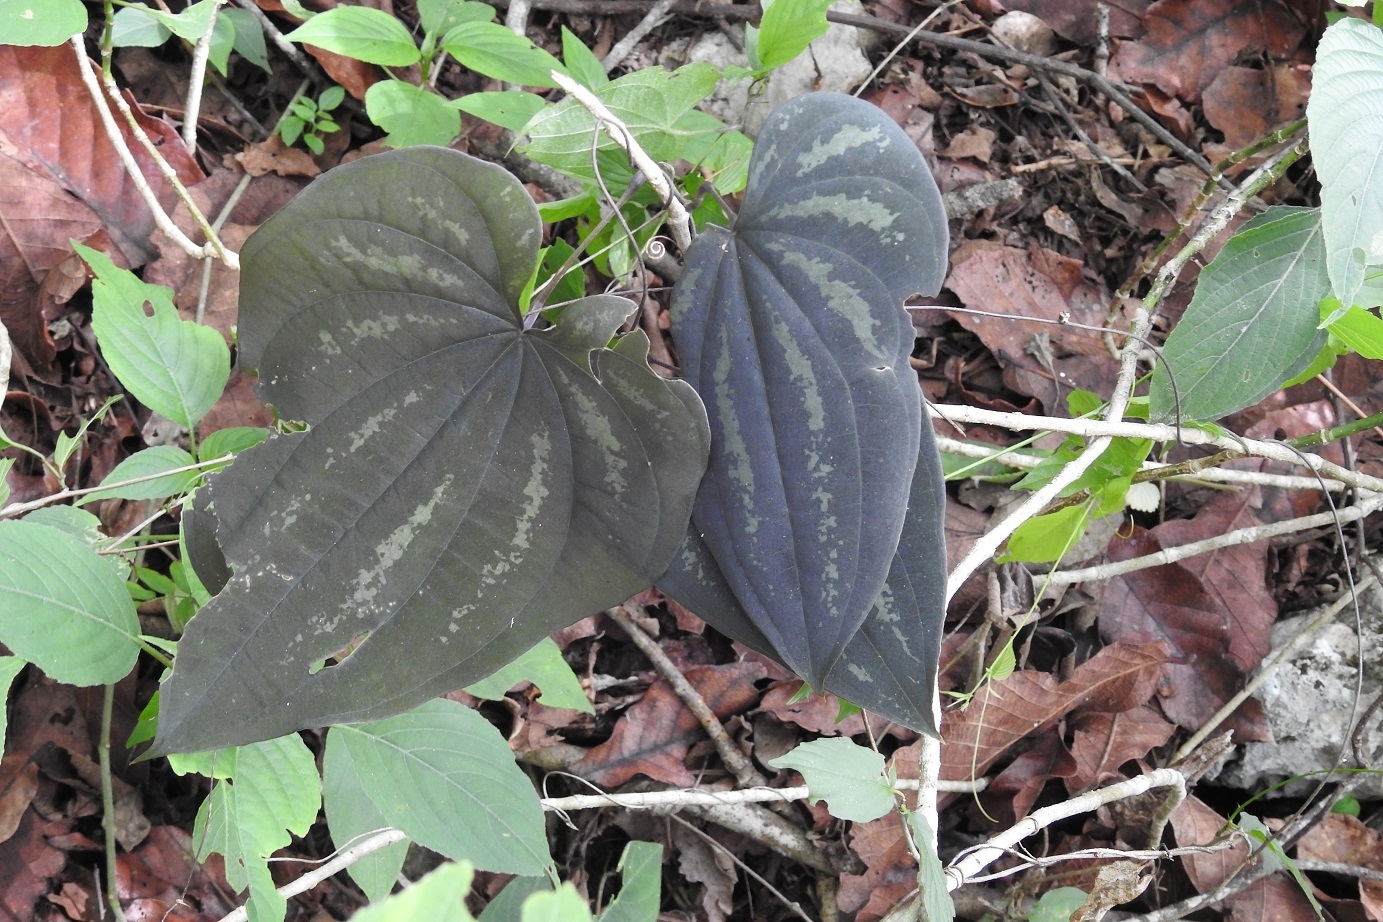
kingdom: Plantae
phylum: Tracheophyta
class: Liliopsida
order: Dioscoreales
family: Dioscoreaceae
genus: Dioscorea
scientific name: Dioscorea cyanisticta
